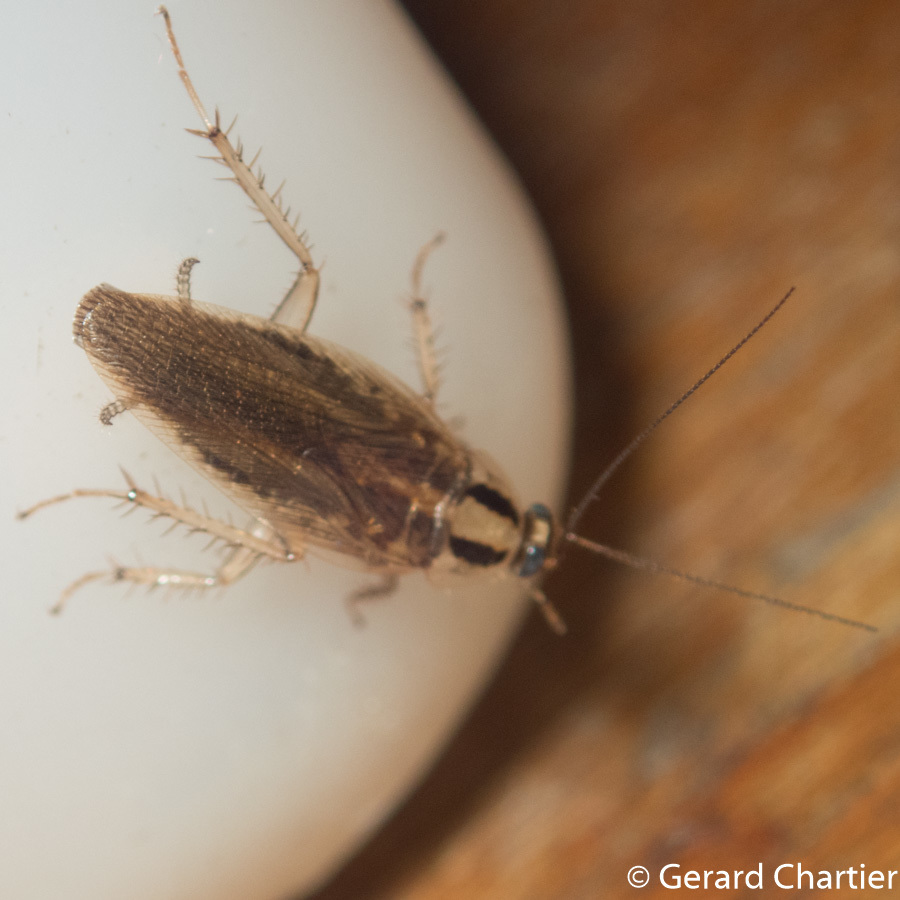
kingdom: Animalia
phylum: Arthropoda
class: Insecta
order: Blattodea
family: Ectobiidae
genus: Blattella
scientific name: Blattella germanica
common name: German cockroach
